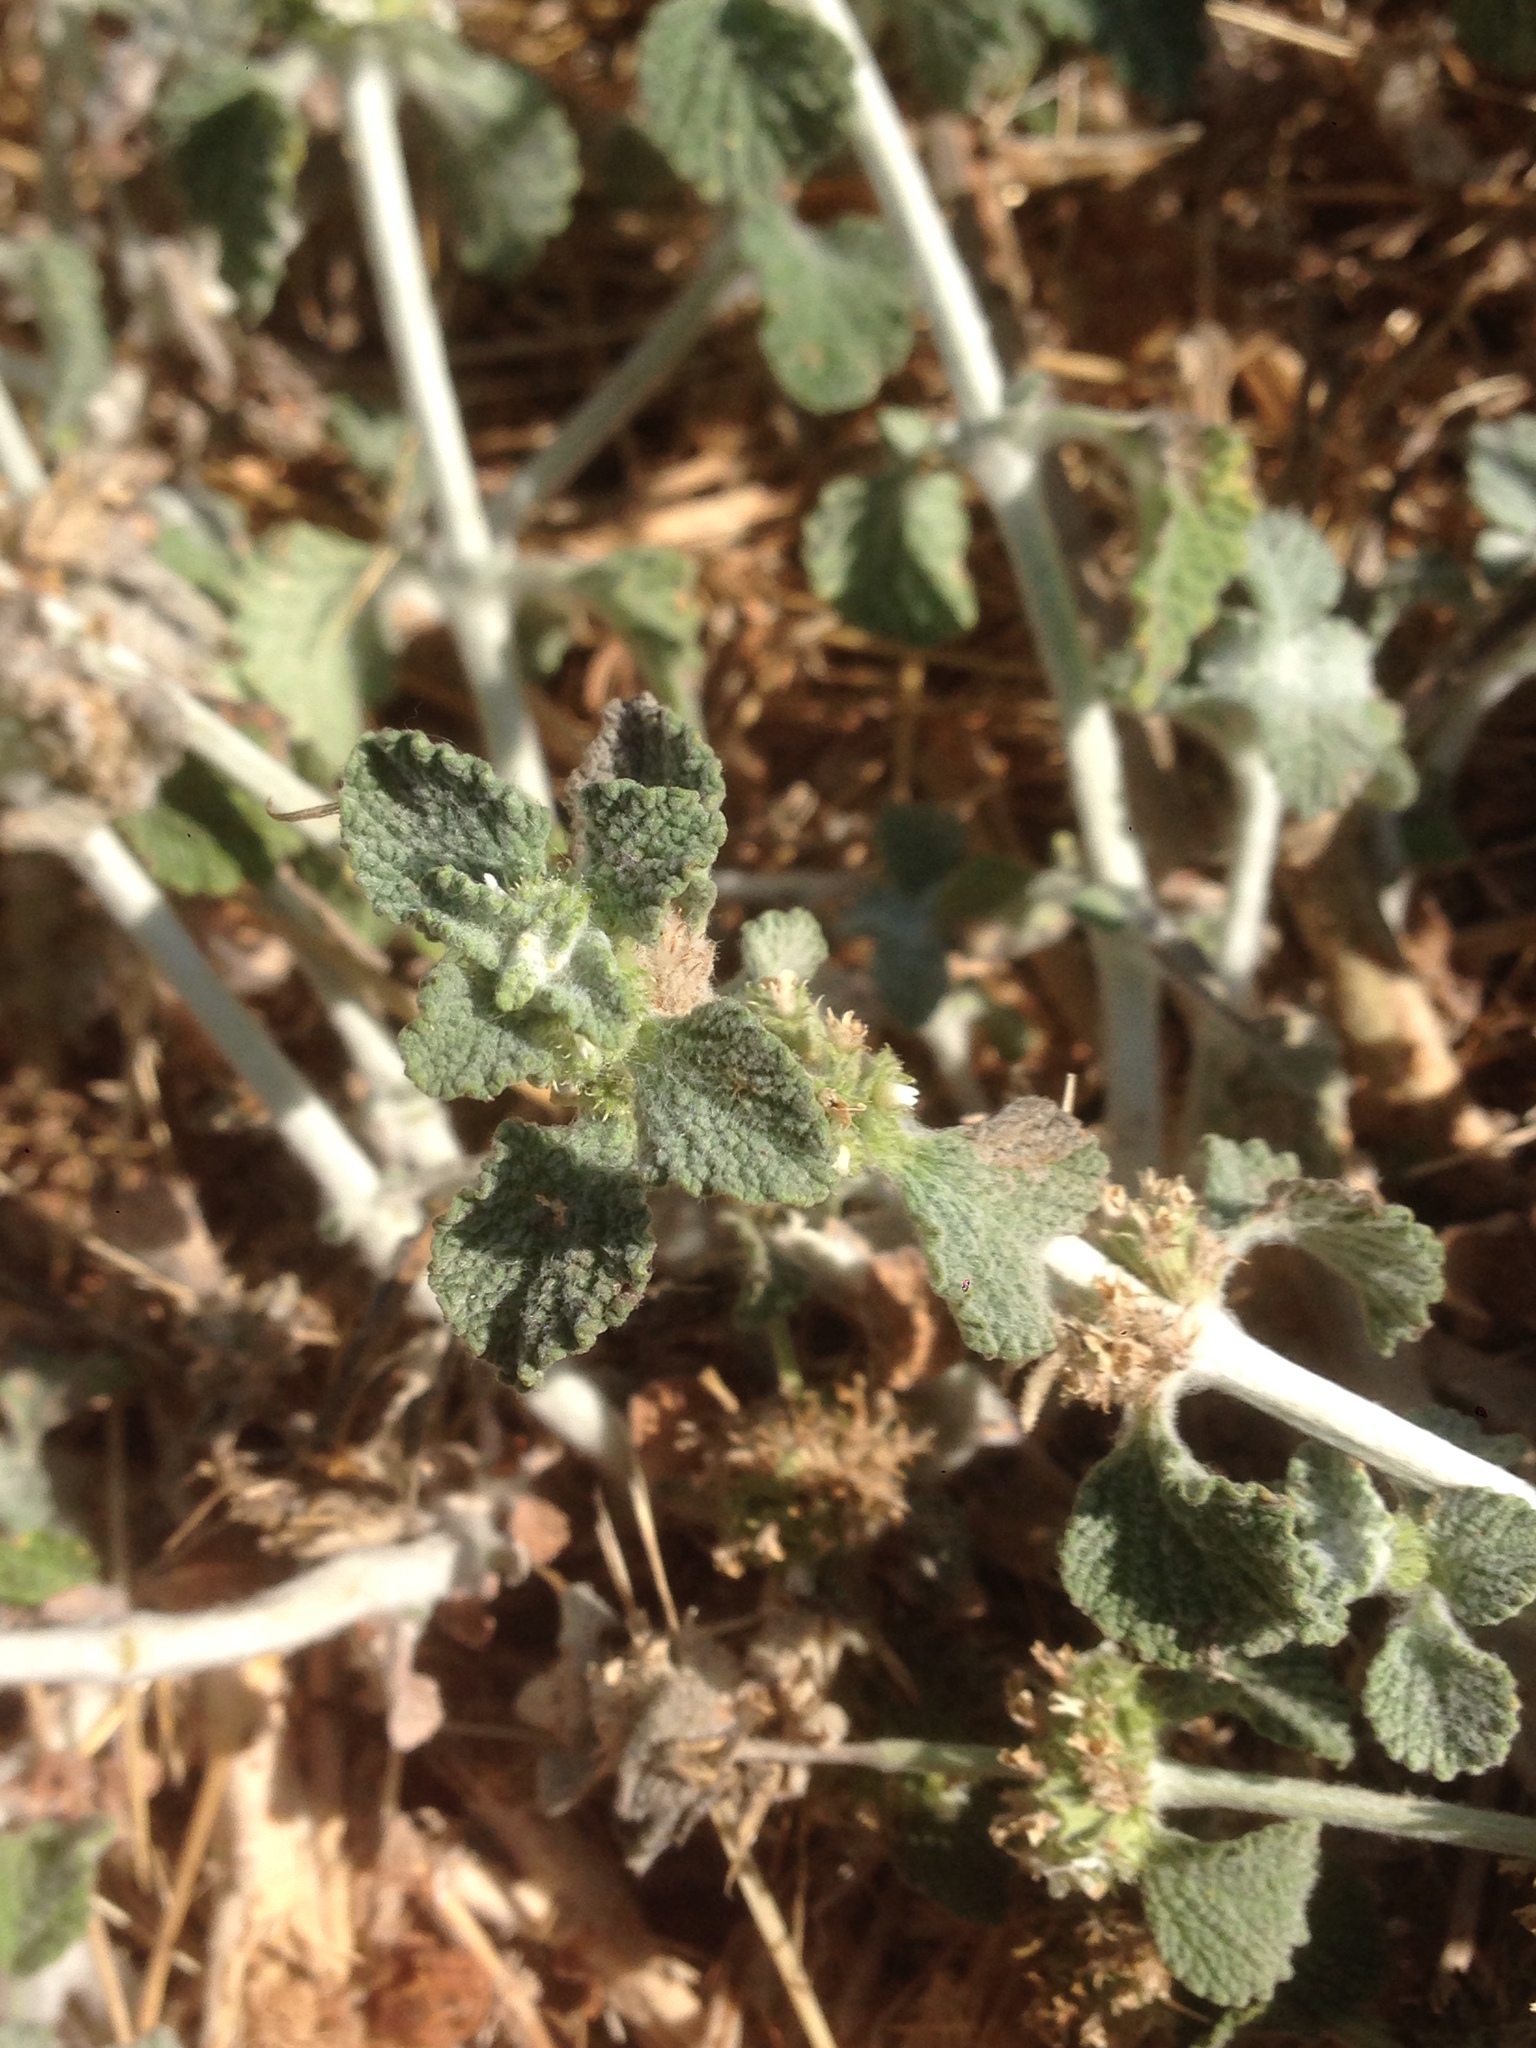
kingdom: Plantae
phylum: Tracheophyta
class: Magnoliopsida
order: Lamiales
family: Lamiaceae
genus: Marrubium
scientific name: Marrubium vulgare
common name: Horehound
